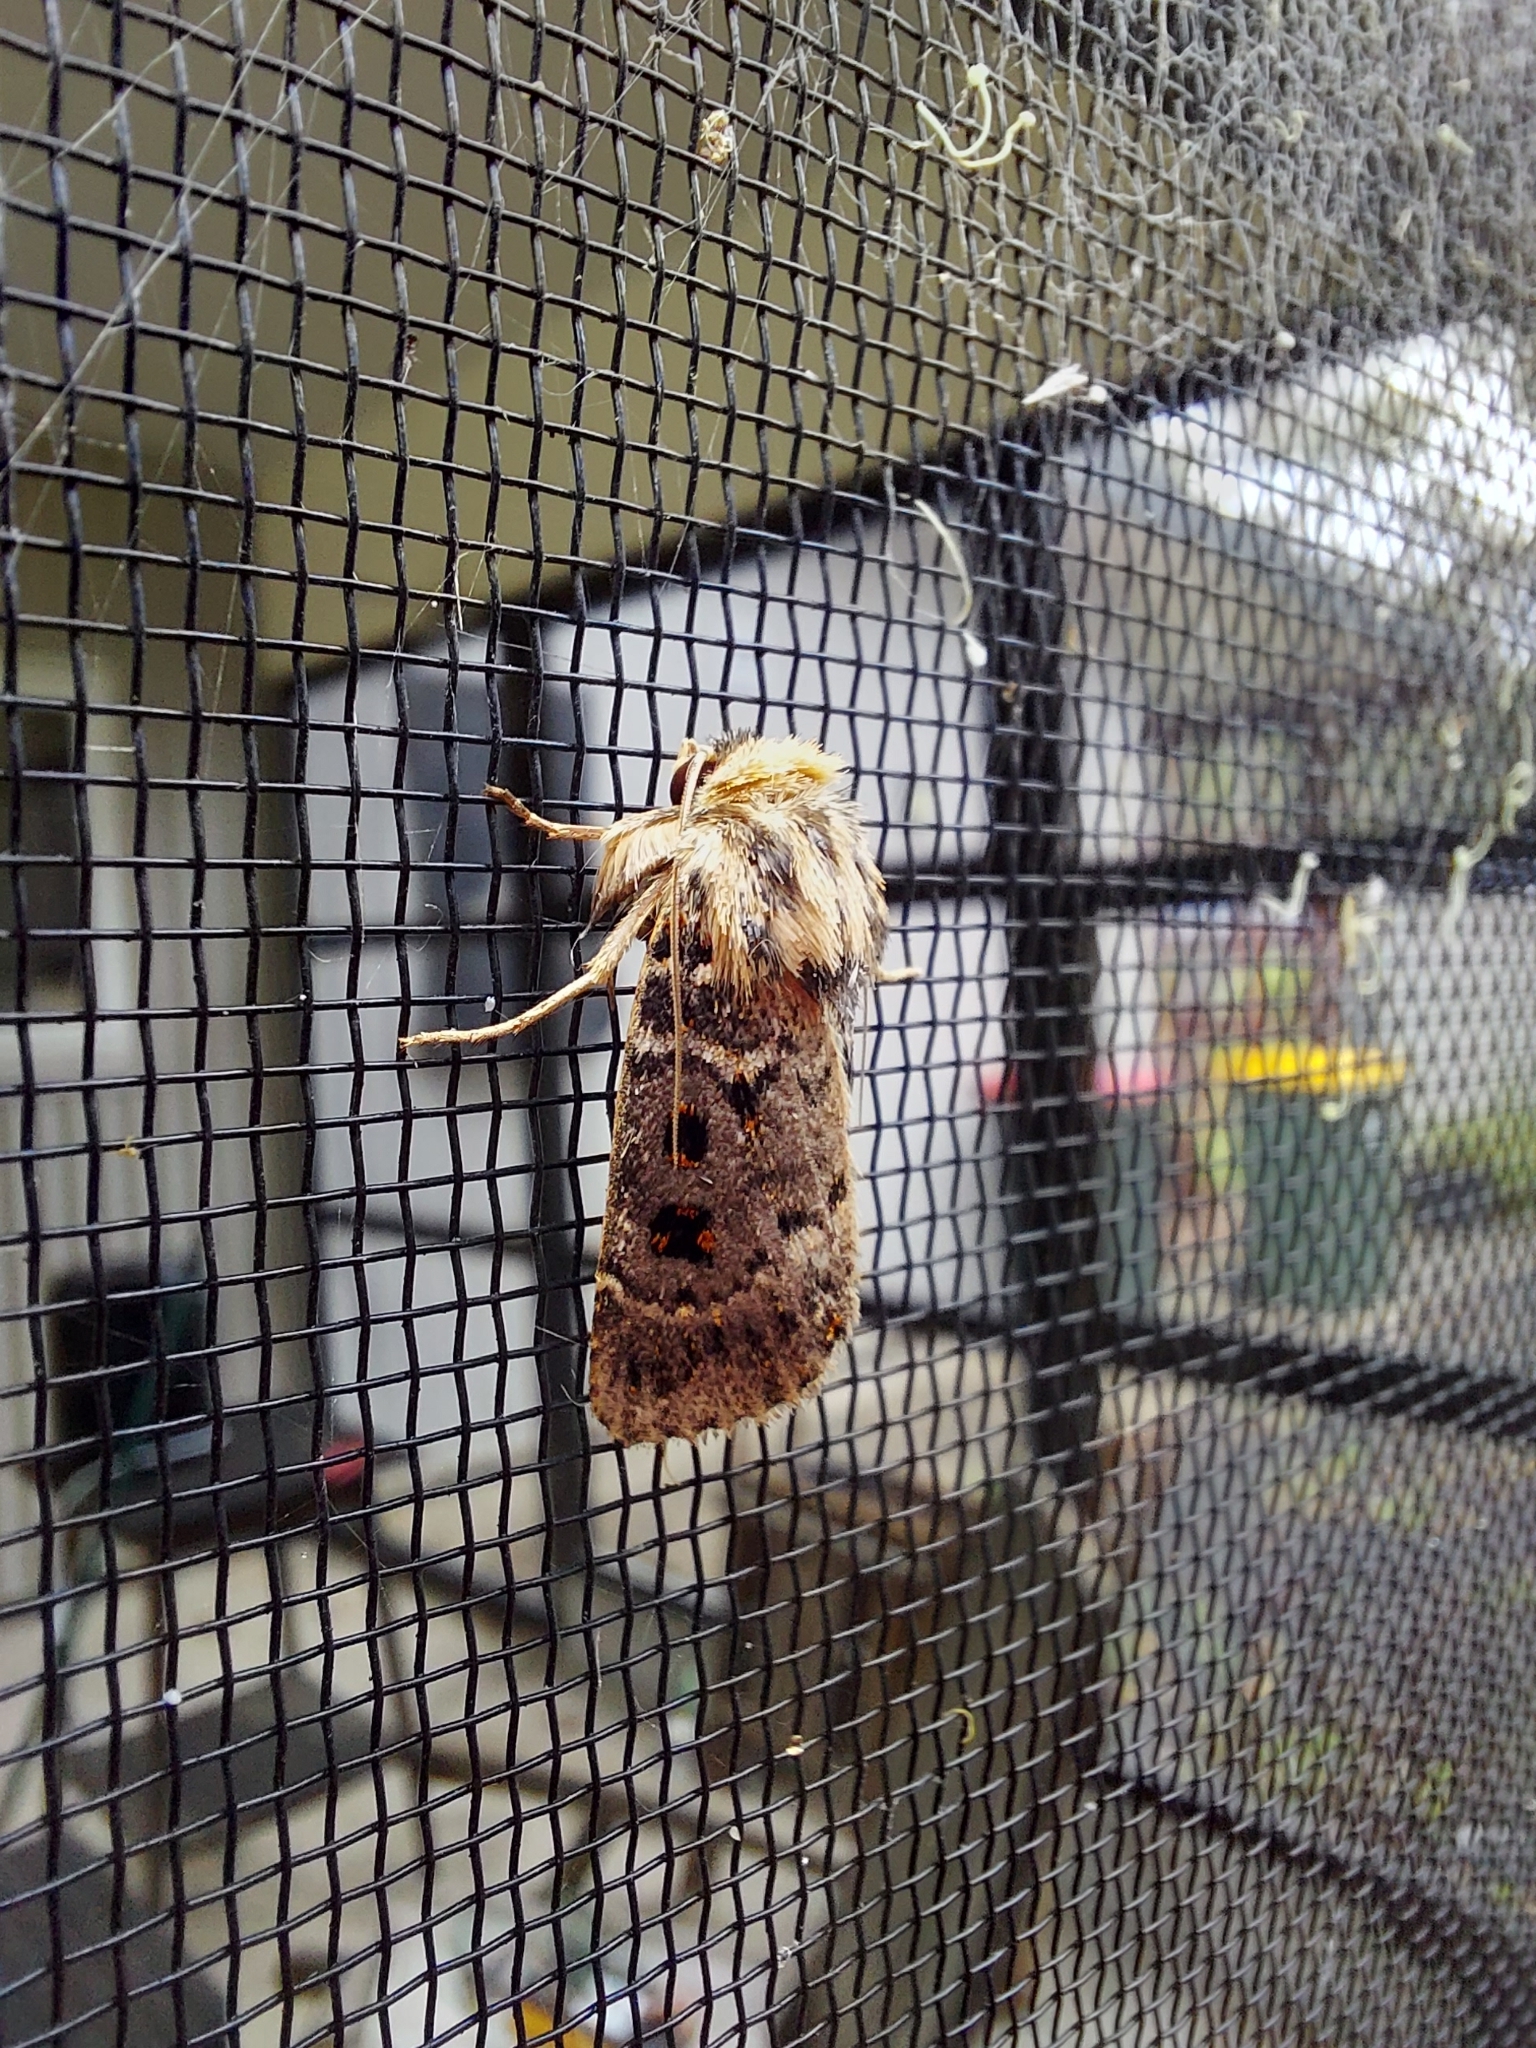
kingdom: Animalia
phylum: Arthropoda
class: Insecta
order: Lepidoptera
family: Noctuidae
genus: Proteuxoa
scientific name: Proteuxoa sanguinipuncta
